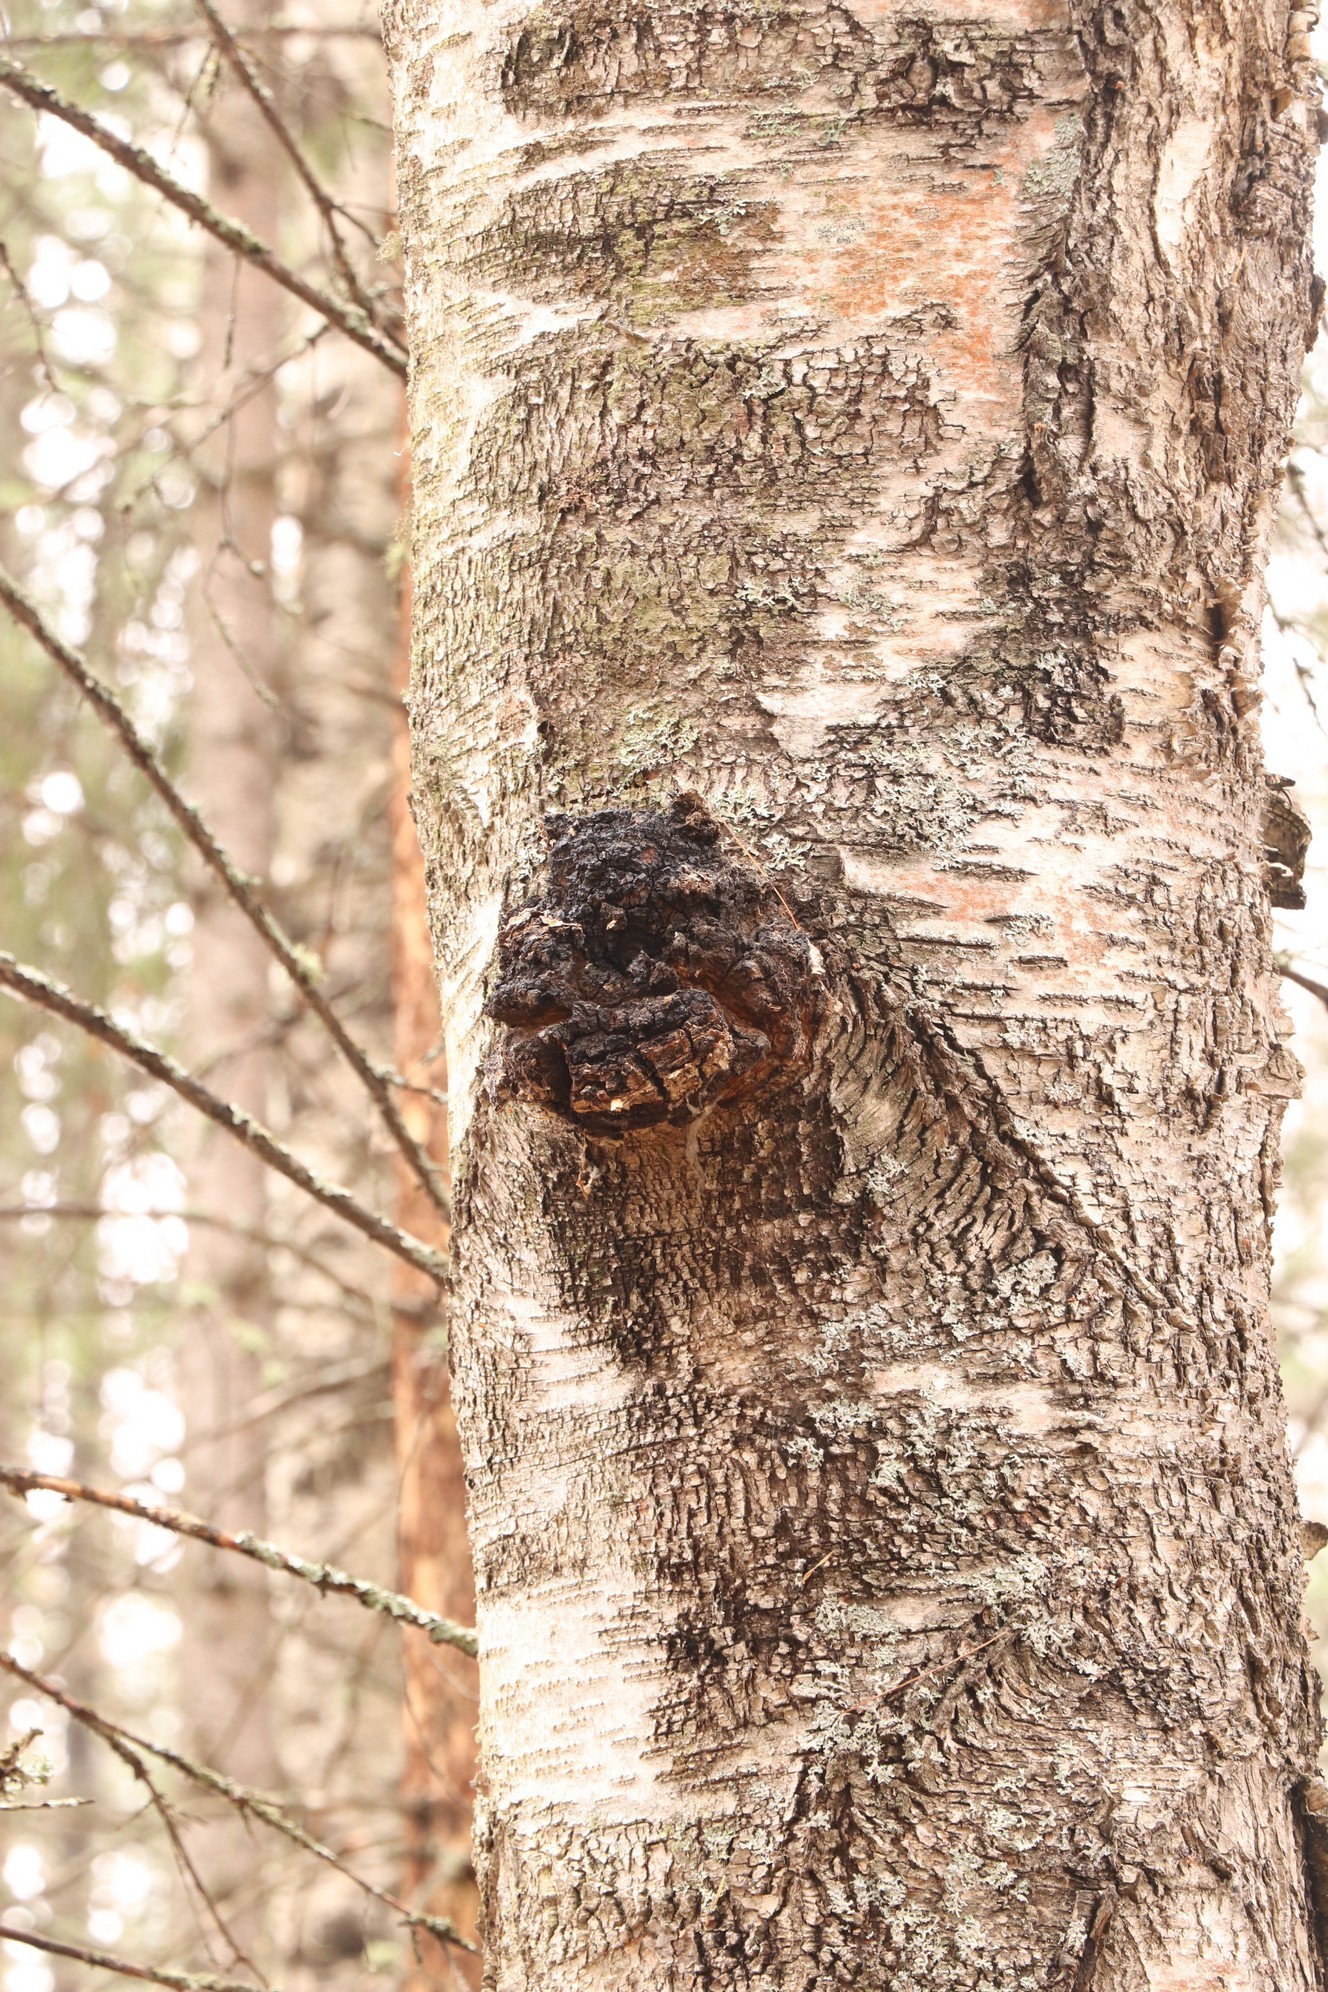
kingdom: Fungi
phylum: Basidiomycota
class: Agaricomycetes
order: Hymenochaetales
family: Hymenochaetaceae
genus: Inonotus
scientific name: Inonotus obliquus
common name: Chaga
